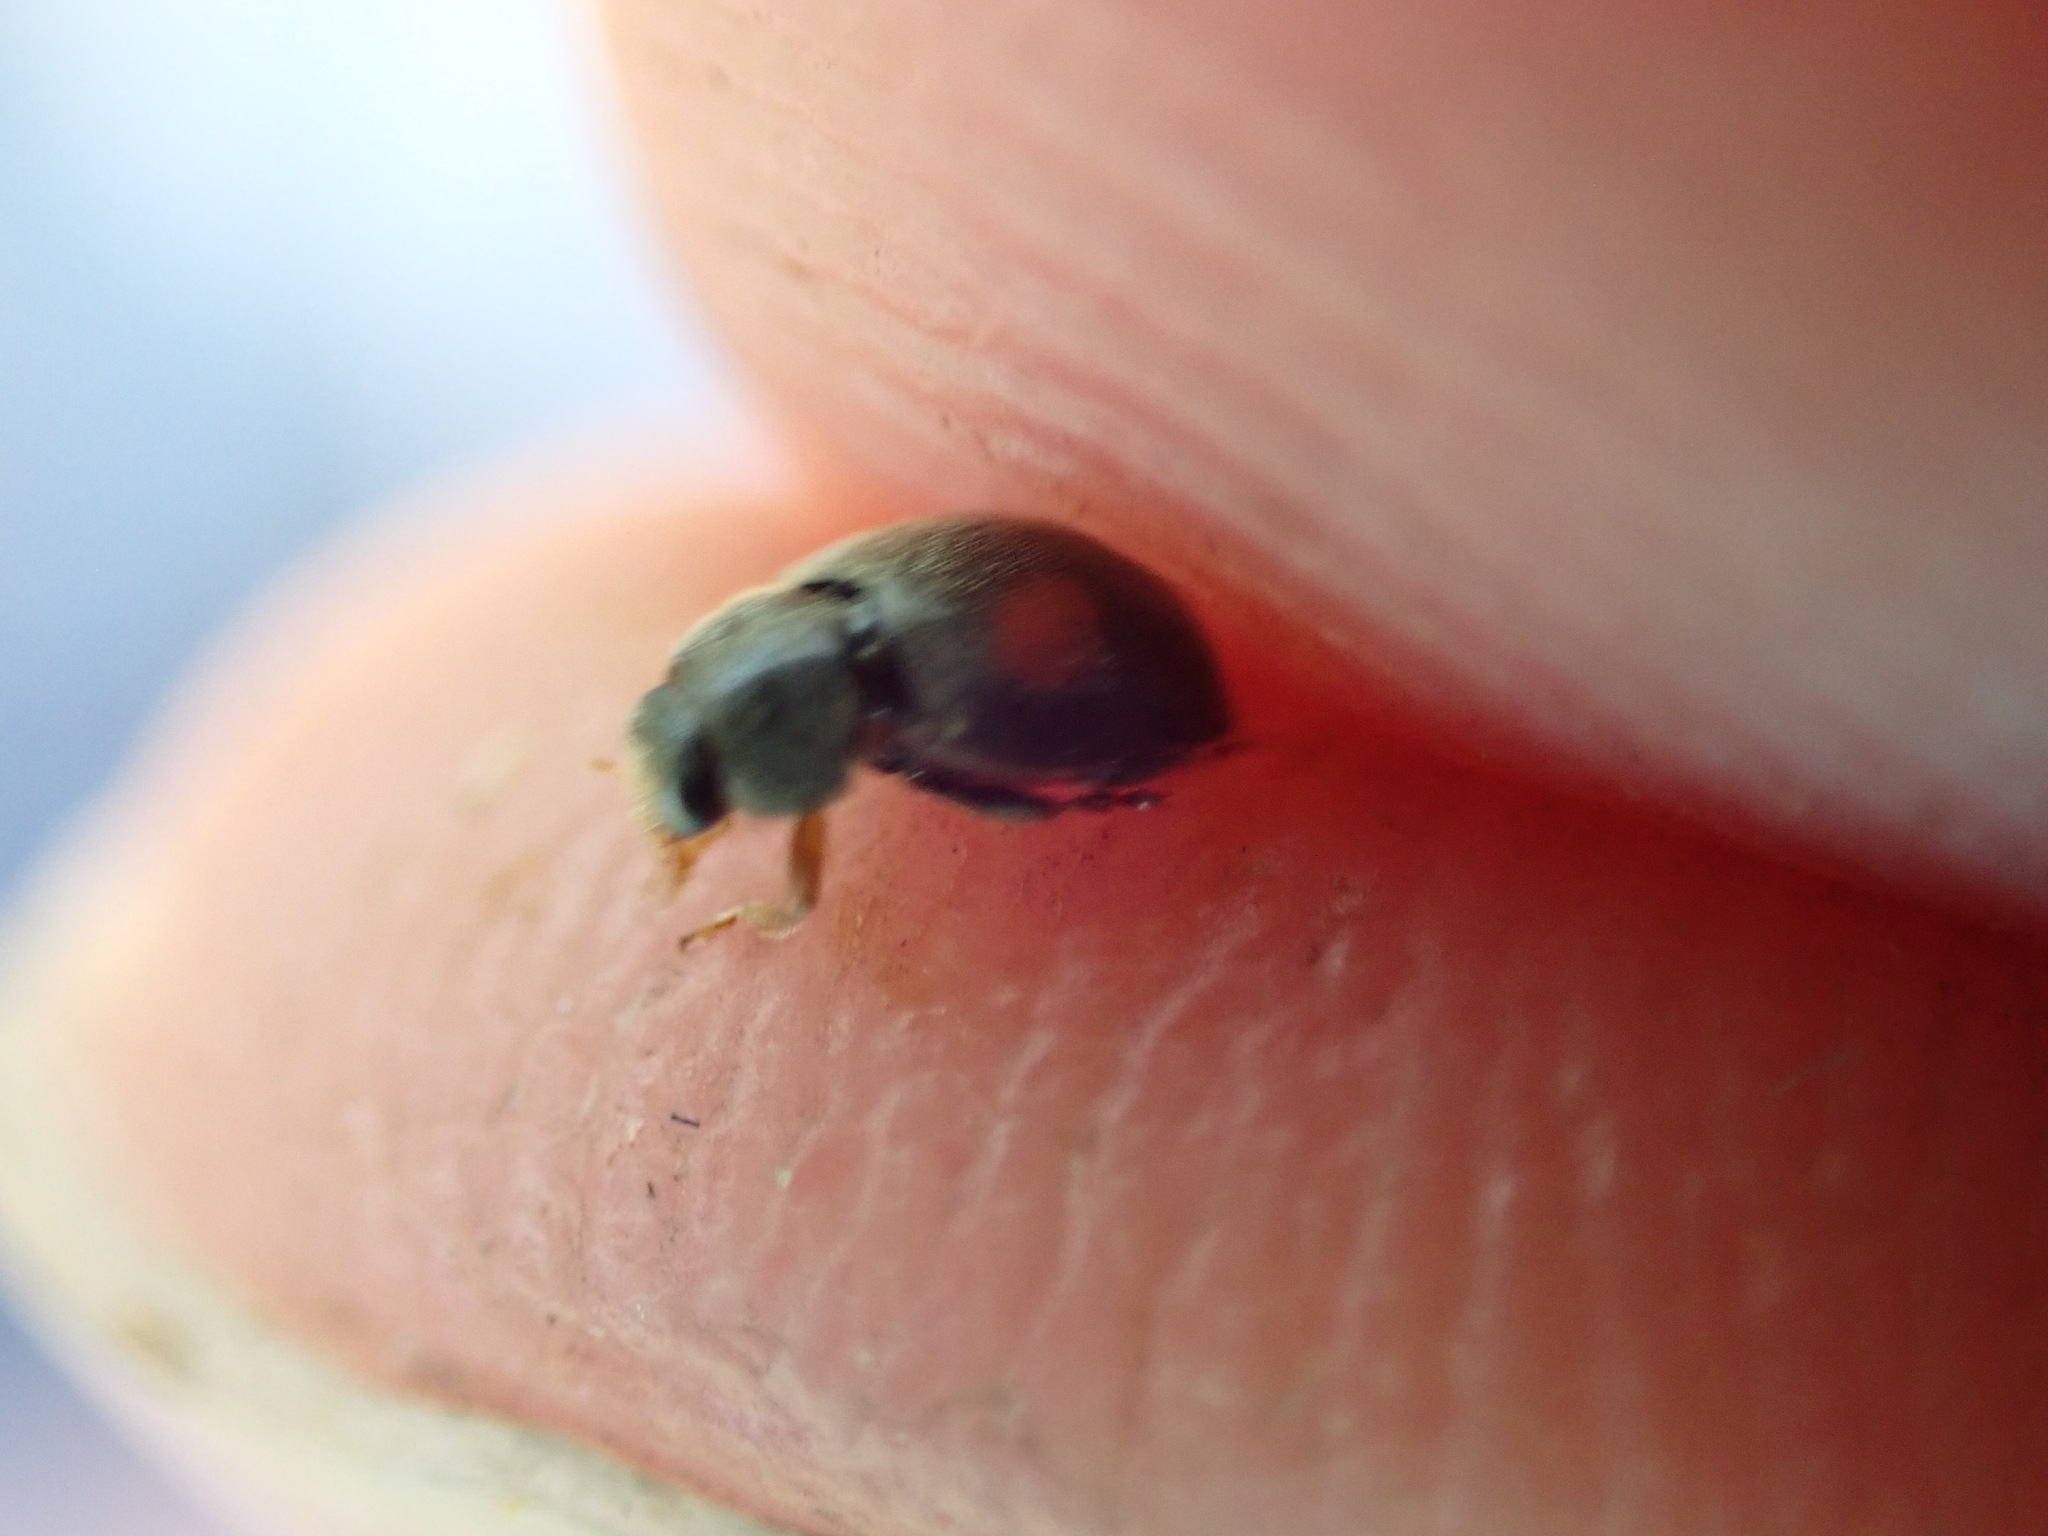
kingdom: Animalia
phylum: Arthropoda
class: Insecta
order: Coleoptera
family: Coccinellidae
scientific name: Coccinellidae
